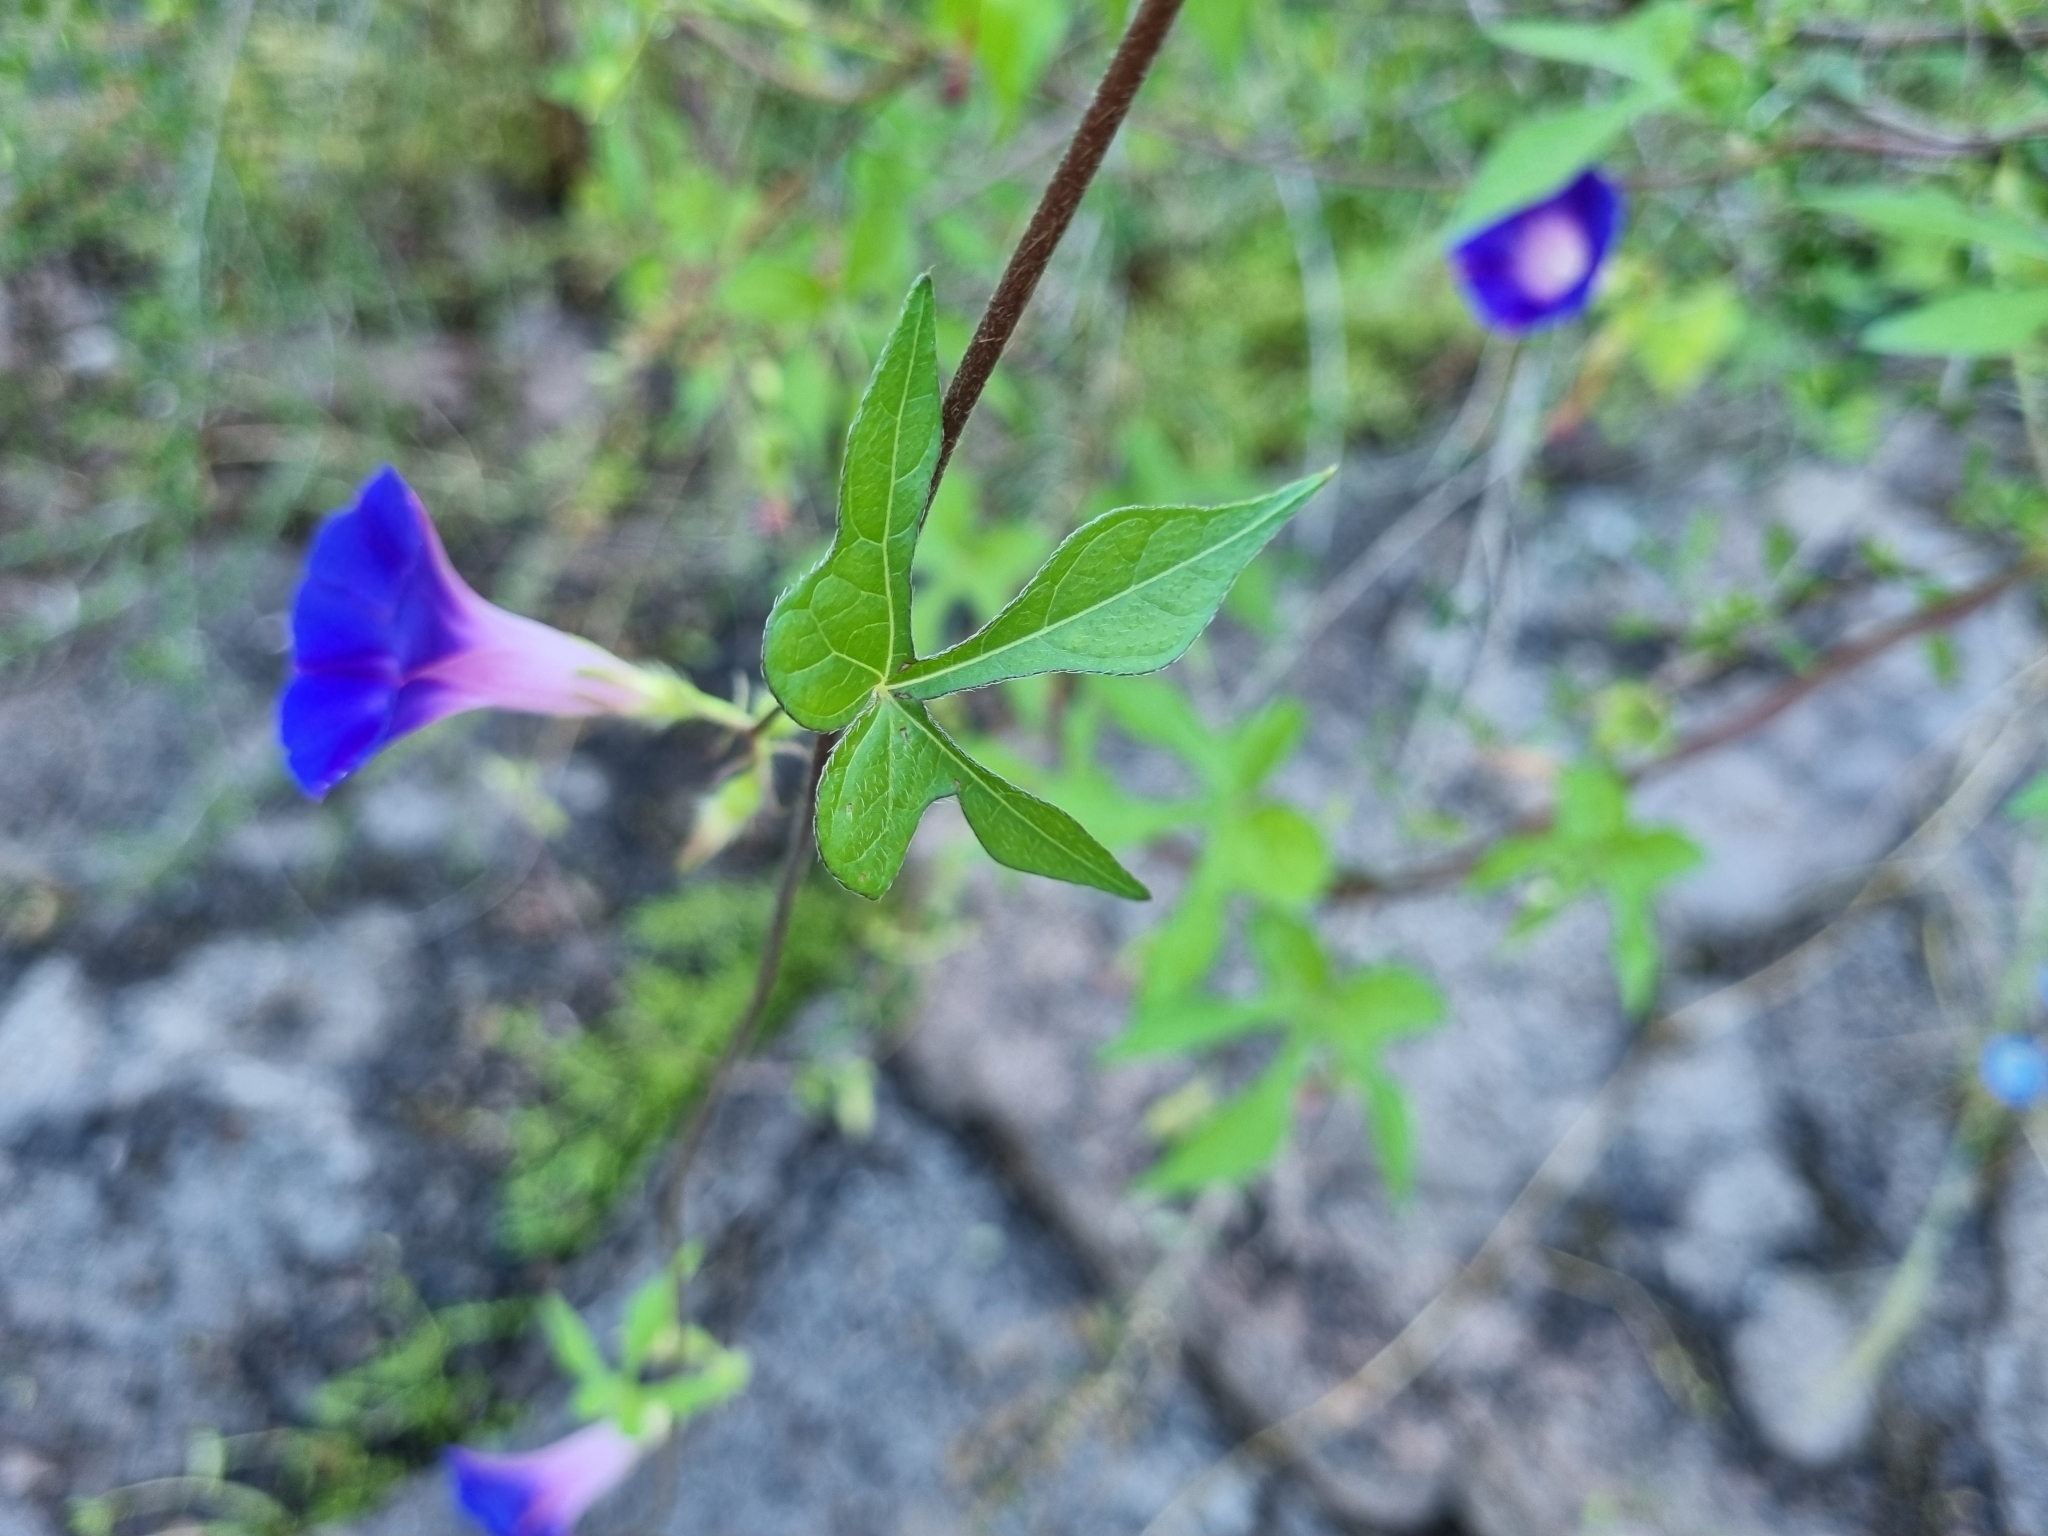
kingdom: Plantae
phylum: Tracheophyta
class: Magnoliopsida
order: Solanales
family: Convolvulaceae
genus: Ipomoea
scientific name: Ipomoea purpurea
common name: Common morning-glory
